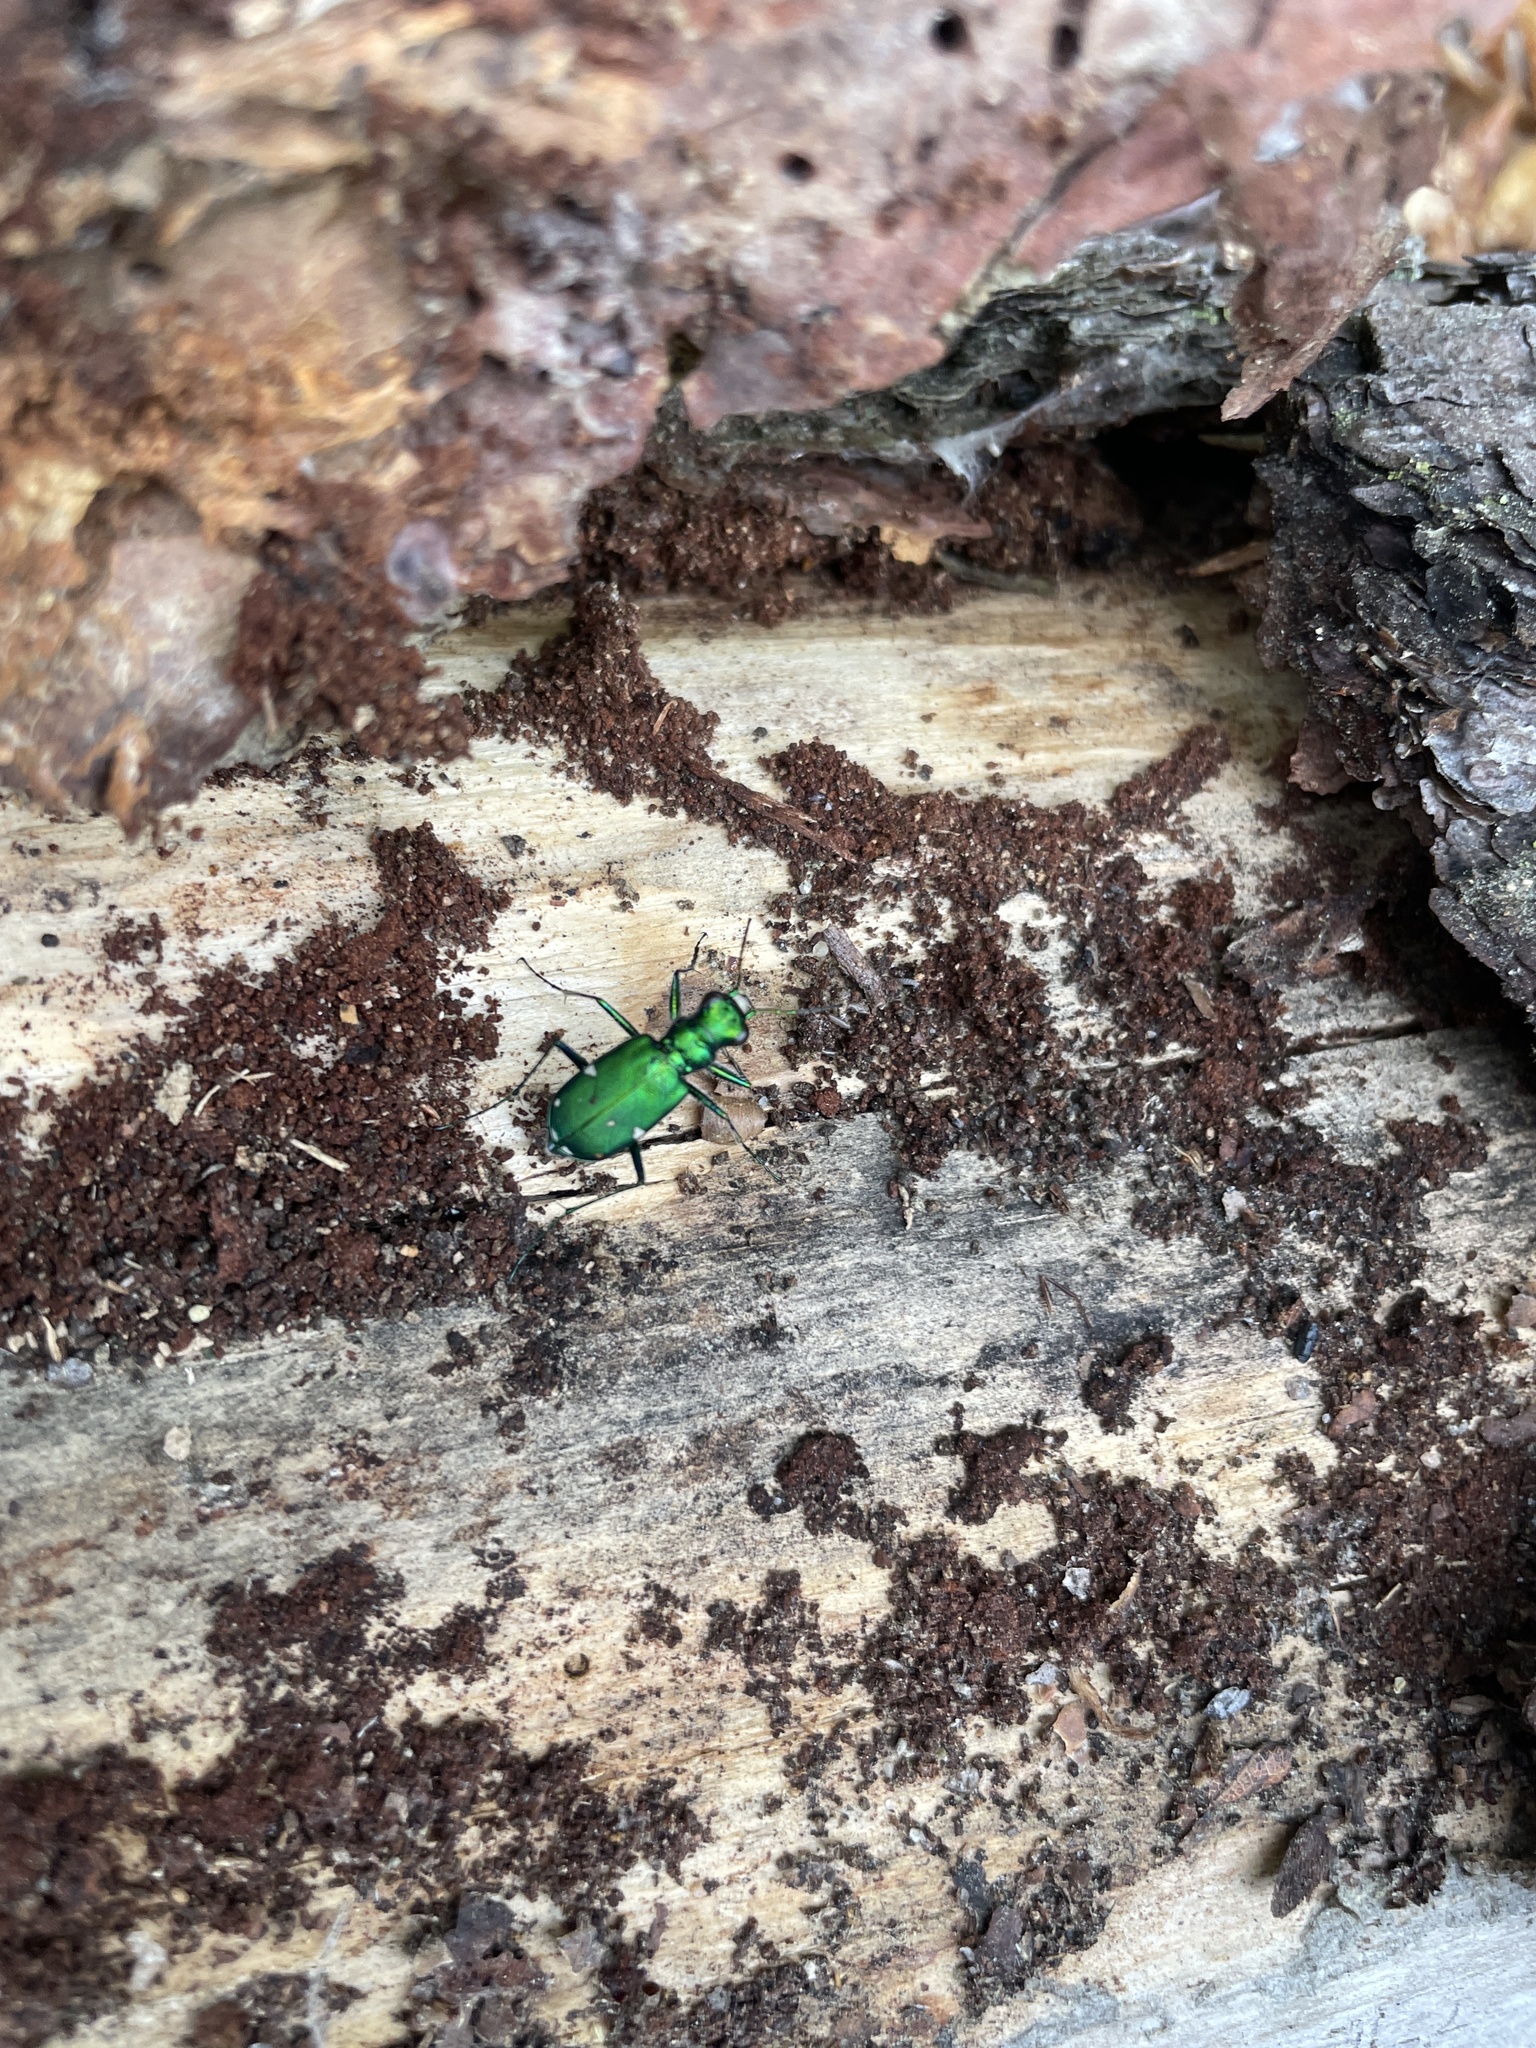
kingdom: Animalia
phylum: Arthropoda
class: Insecta
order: Coleoptera
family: Carabidae
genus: Cicindela
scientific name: Cicindela sexguttata
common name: Six-spotted tiger beetle
